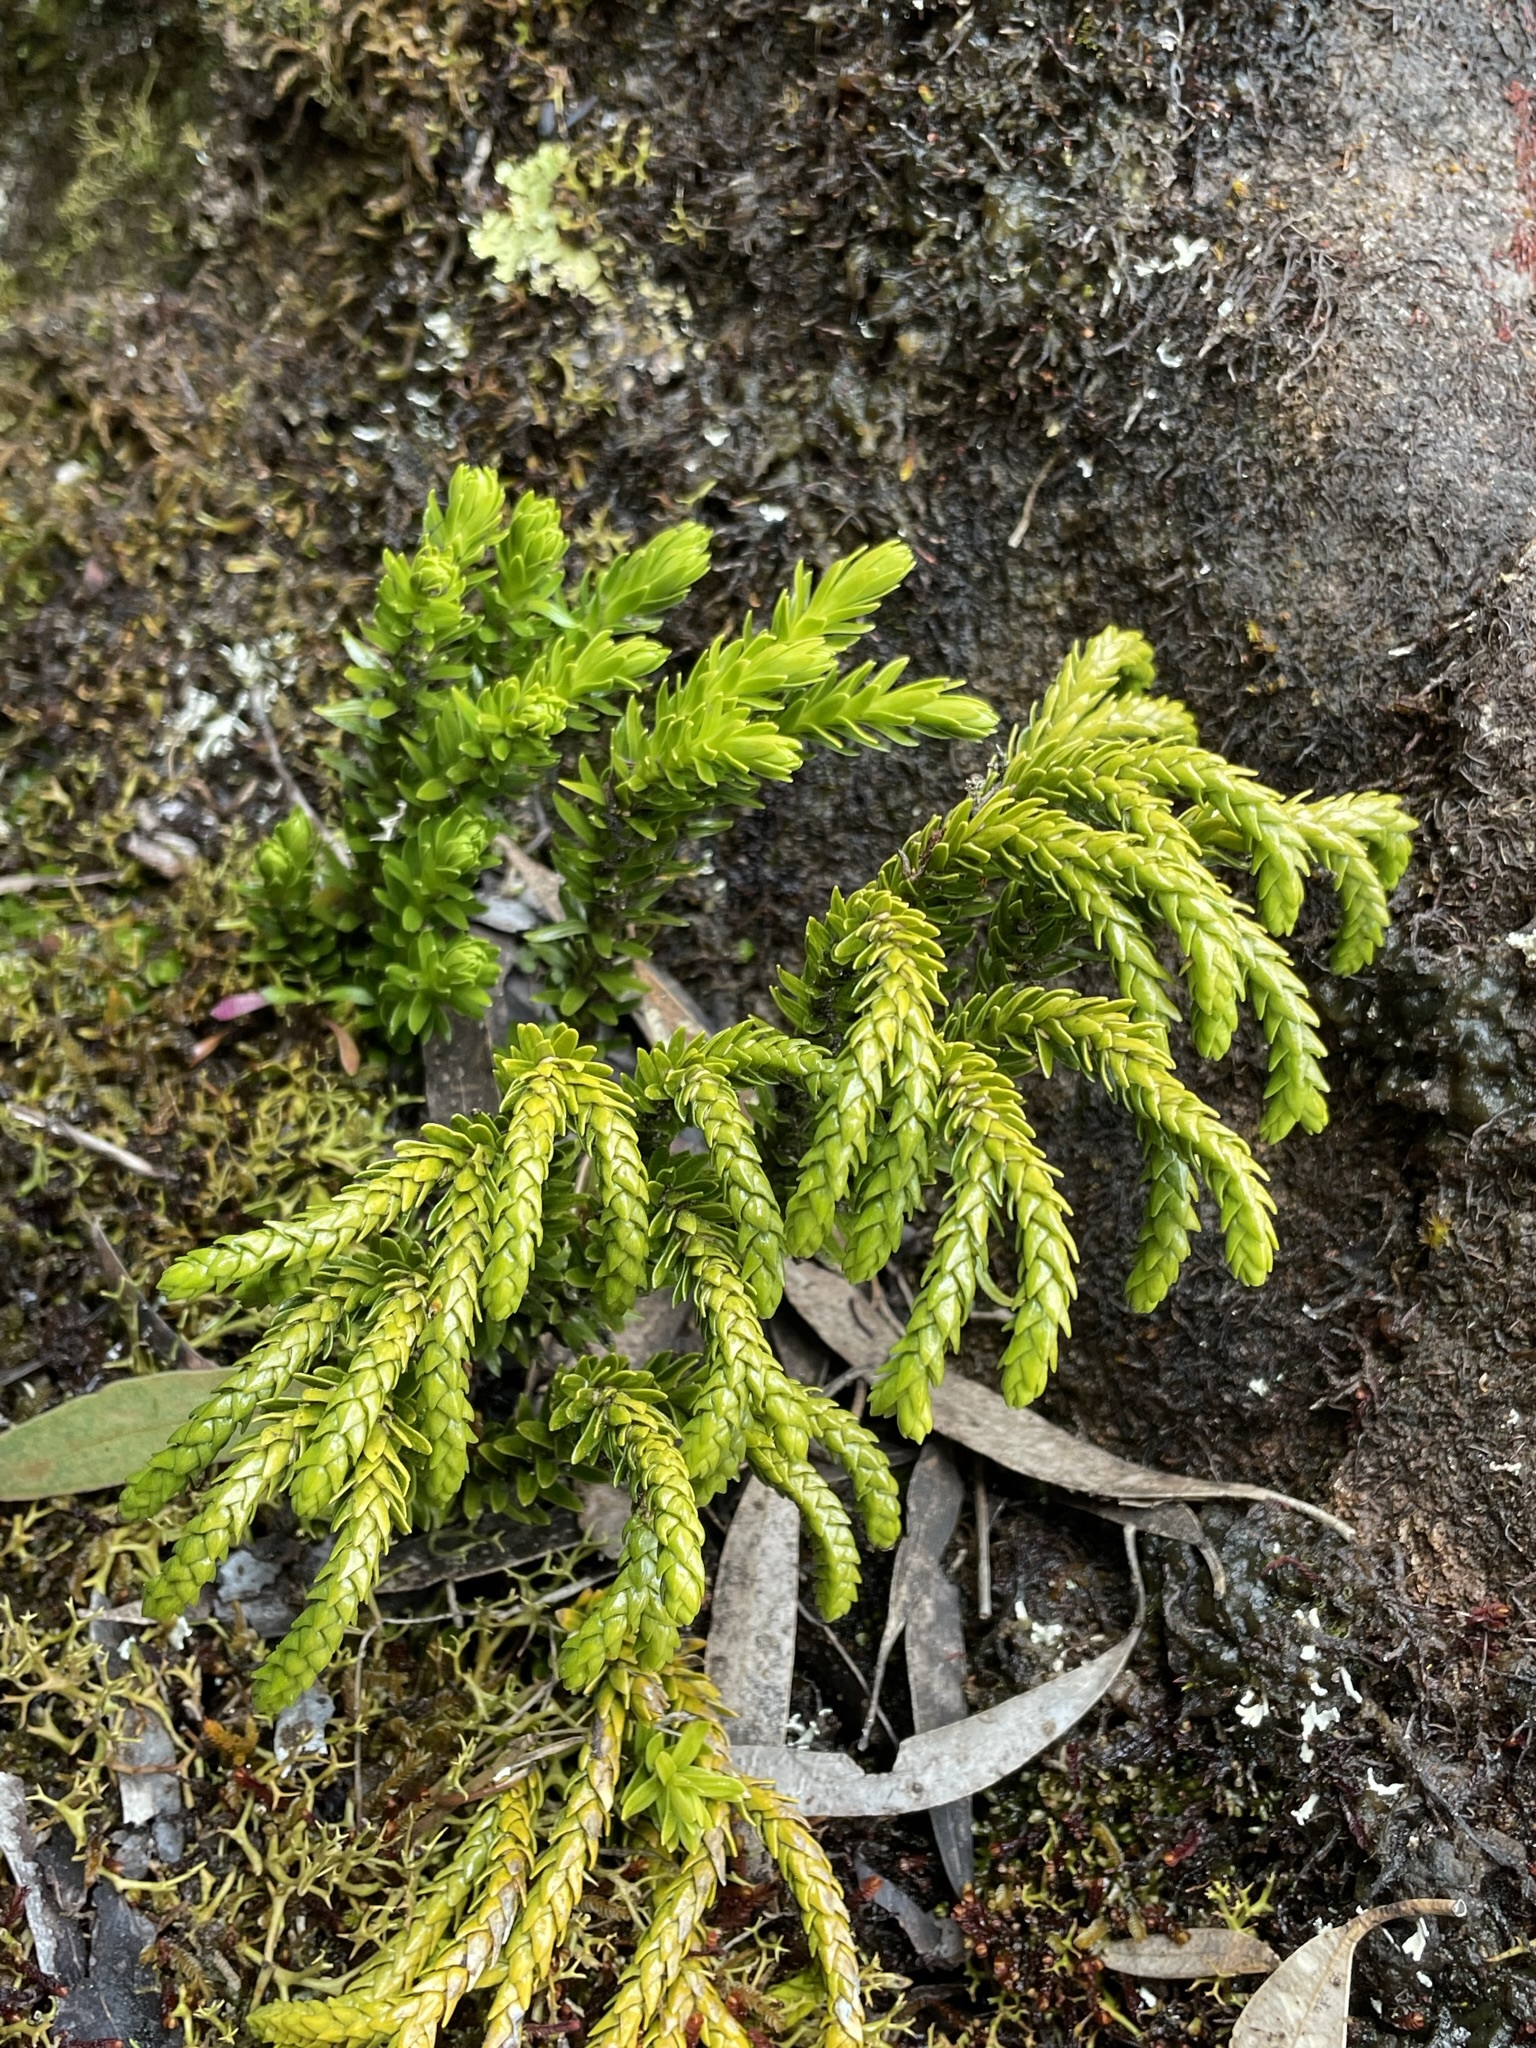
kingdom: Plantae
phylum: Tracheophyta
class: Lycopodiopsida
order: Lycopodiales
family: Lycopodiaceae
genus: Phlegmariurus
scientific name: Phlegmariurus varius
